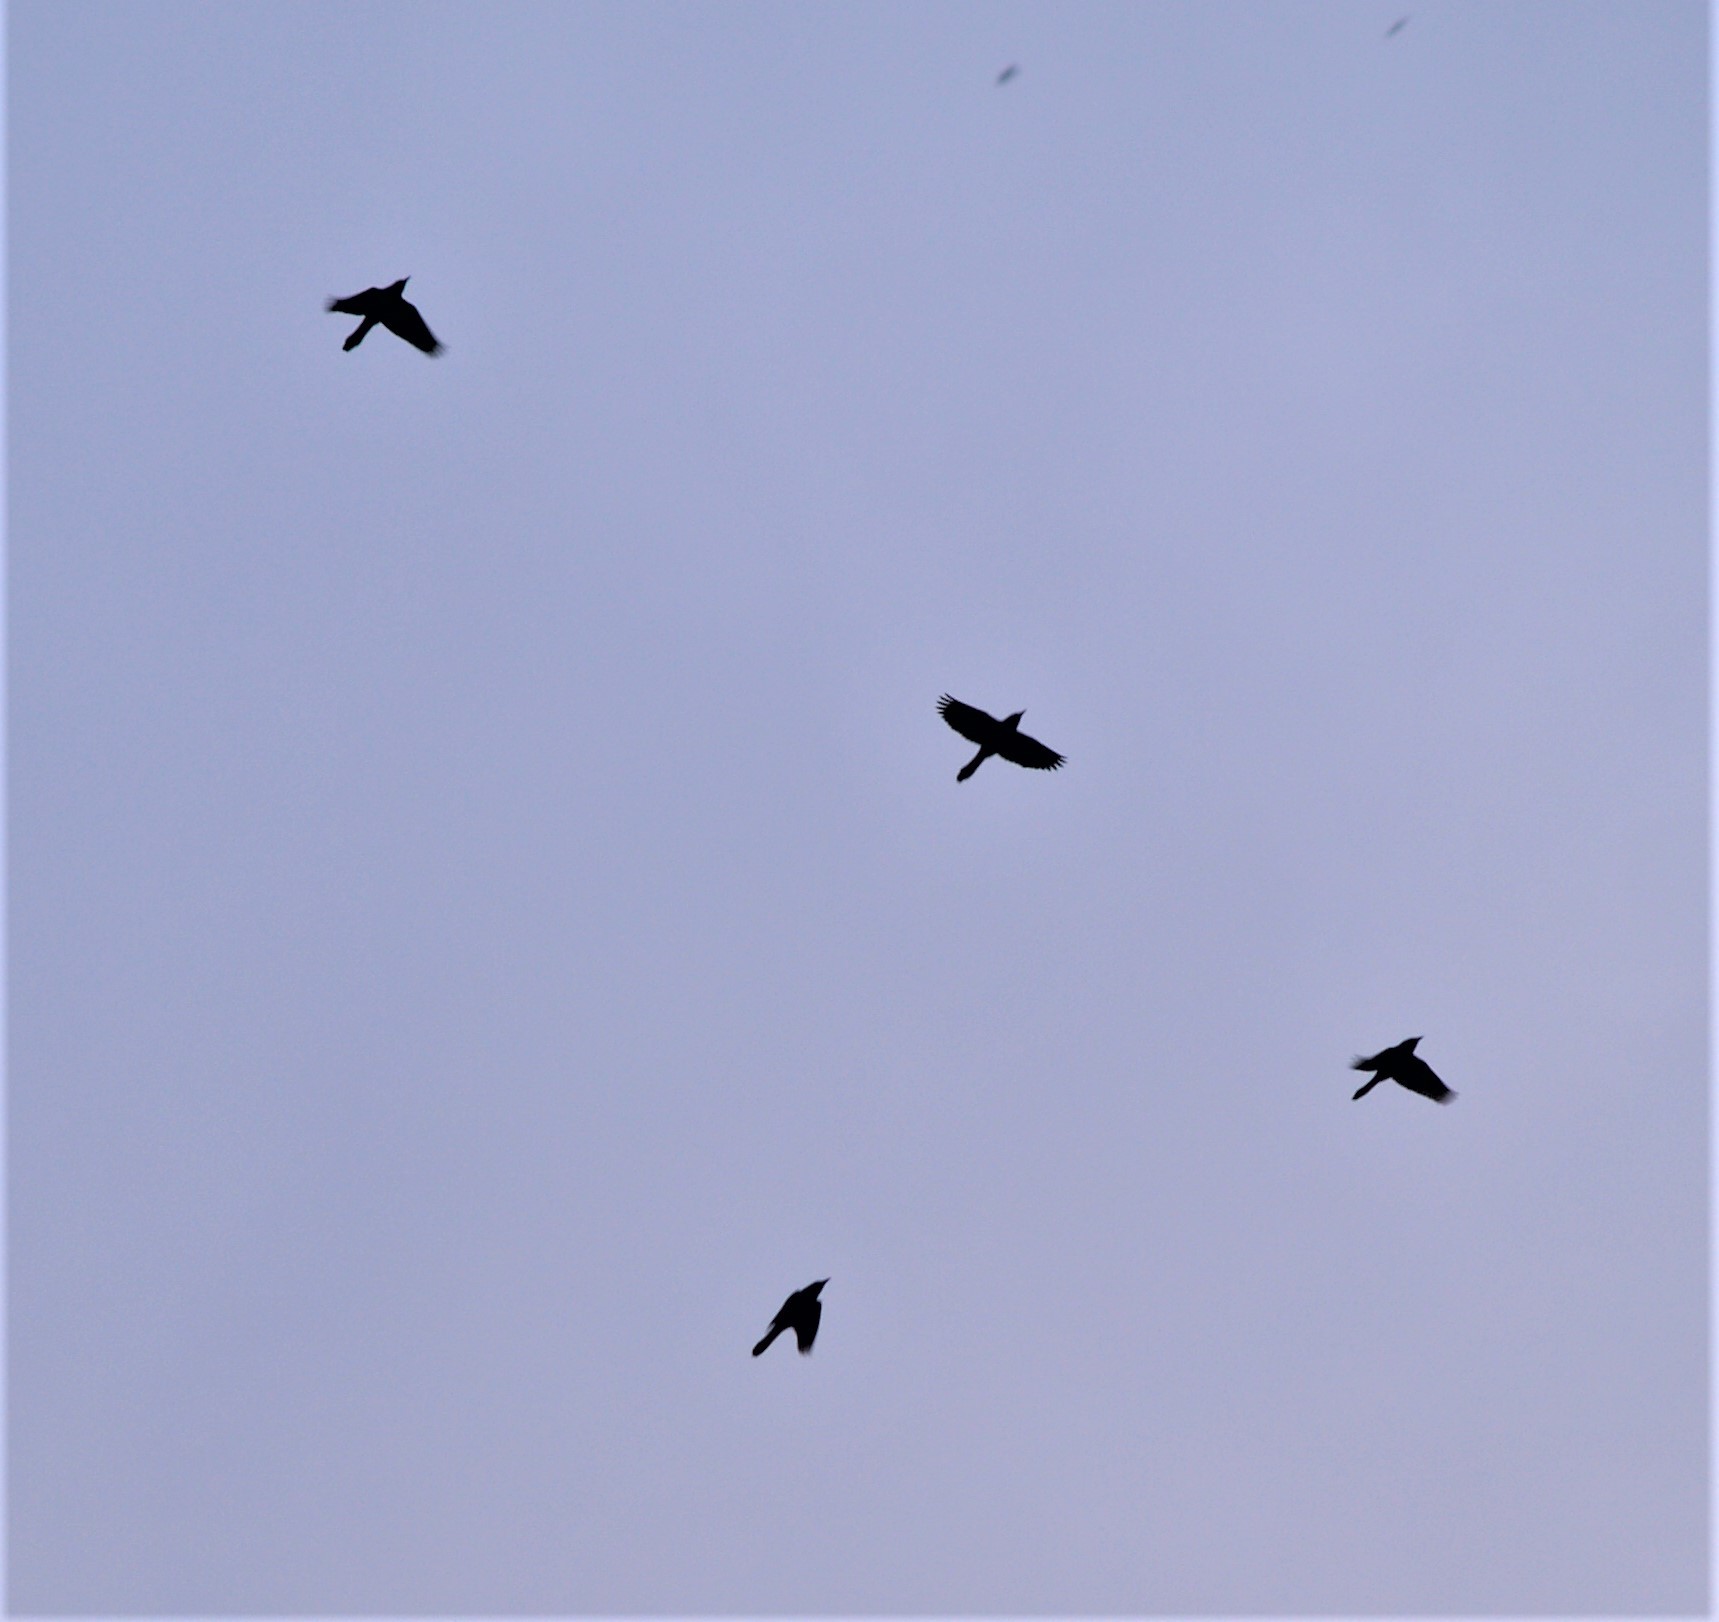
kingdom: Animalia
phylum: Chordata
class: Aves
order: Passeriformes
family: Icteridae
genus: Quiscalus
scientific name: Quiscalus quiscula
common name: Common grackle
